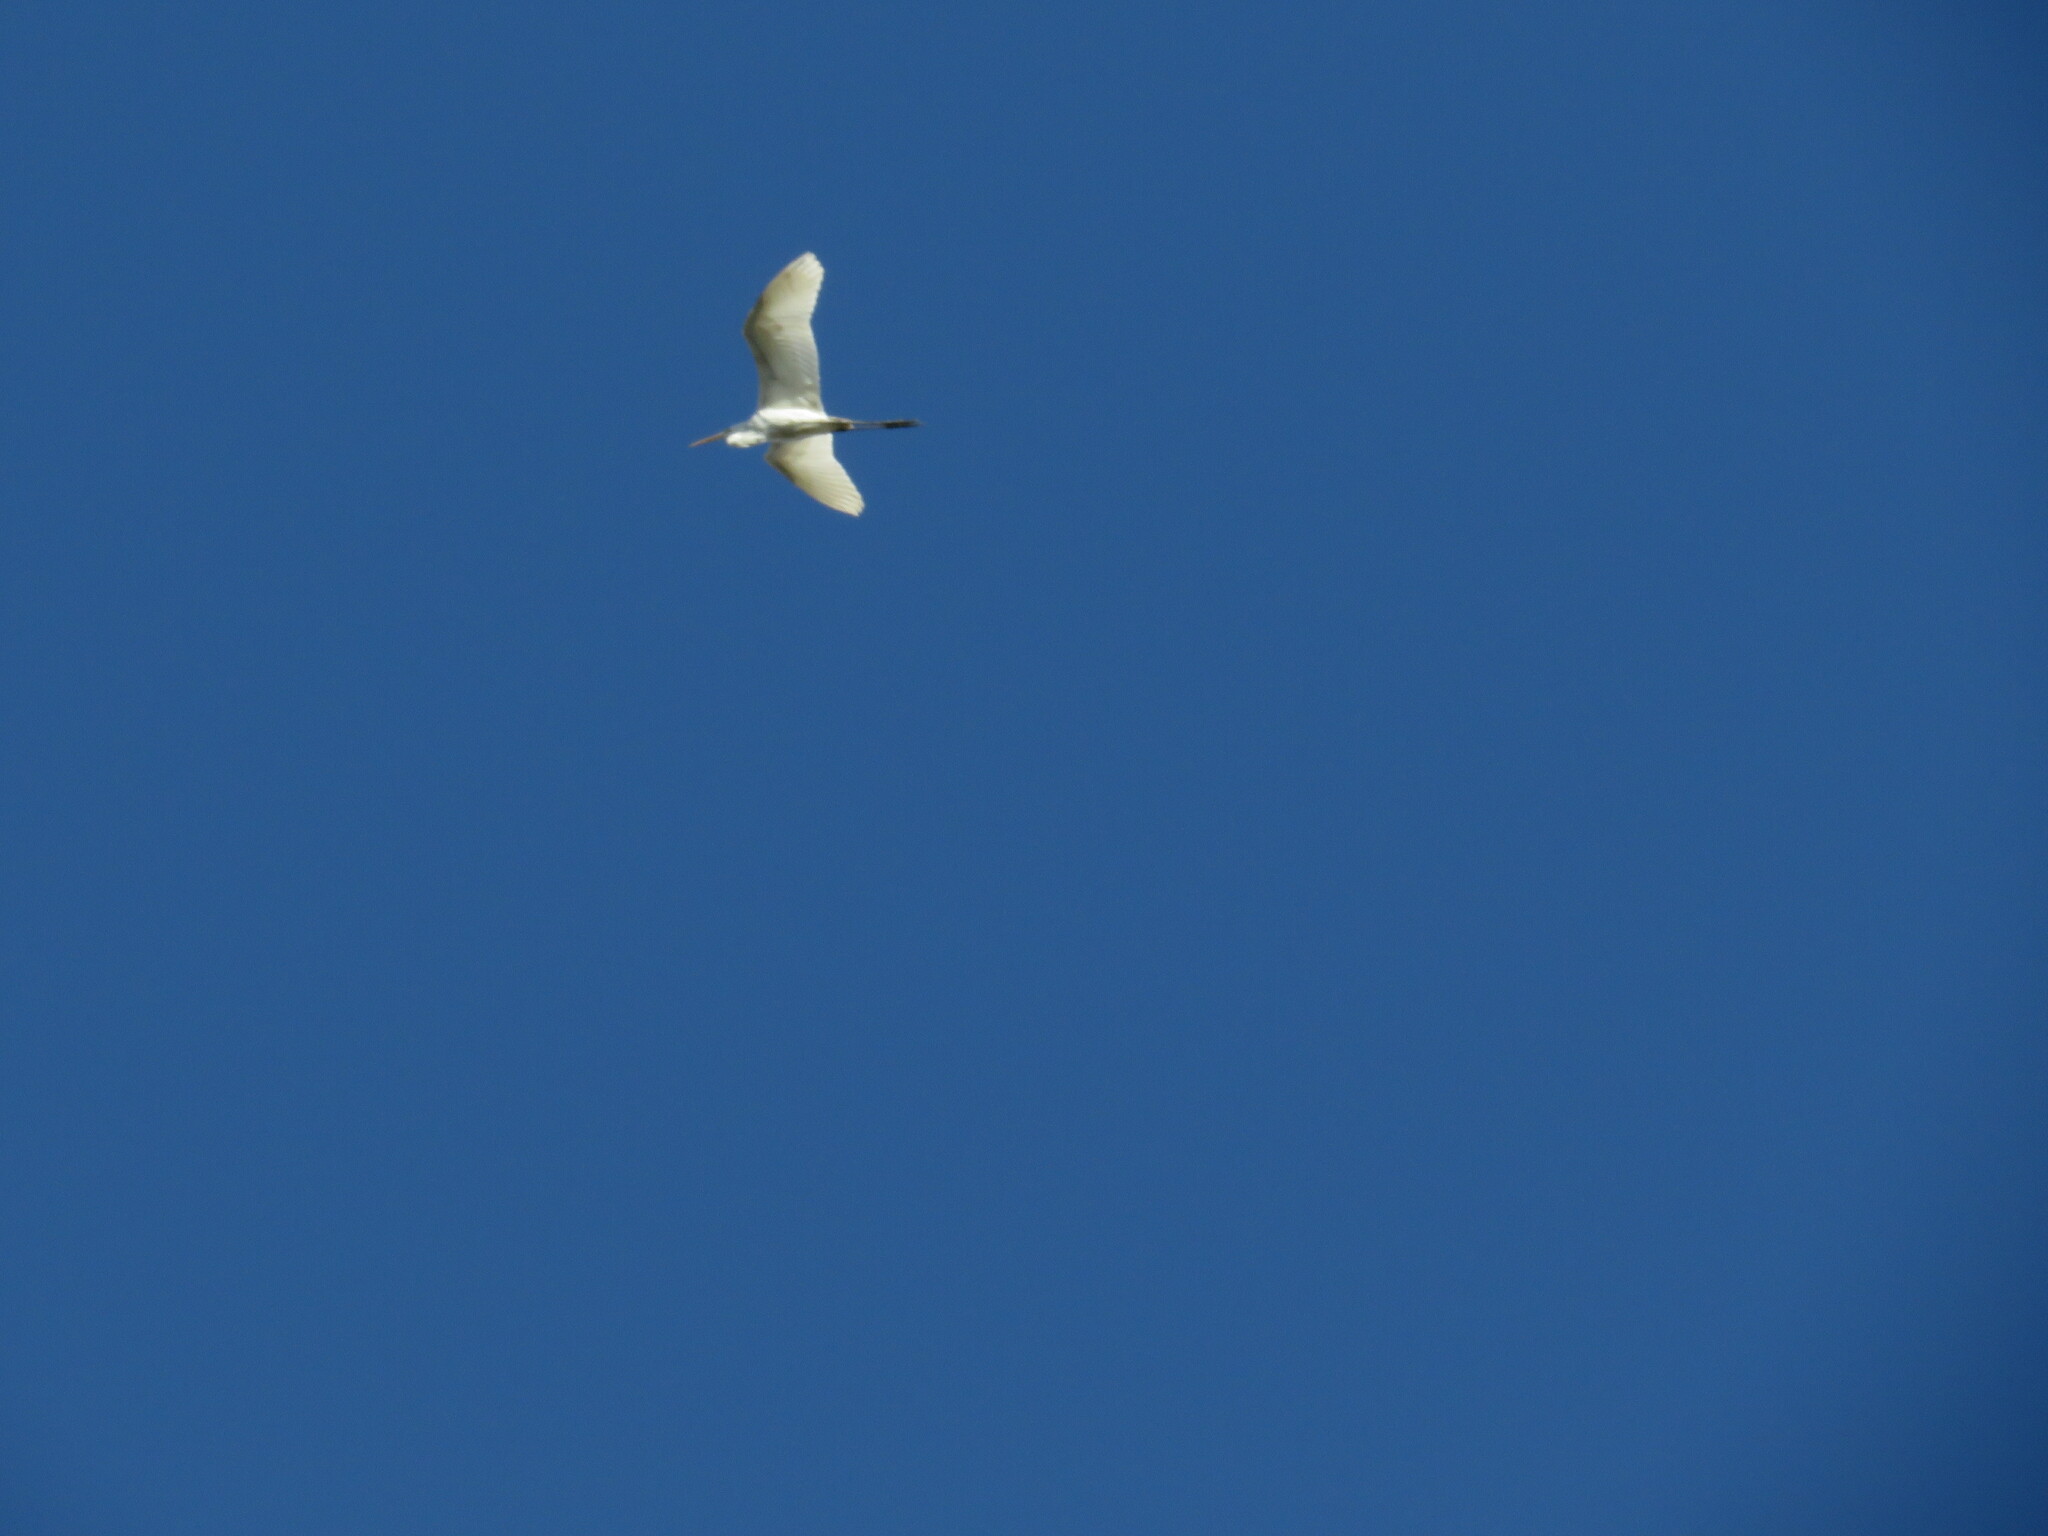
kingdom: Animalia
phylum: Chordata
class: Aves
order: Pelecaniformes
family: Ardeidae
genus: Ardea
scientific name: Ardea alba
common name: Great egret
